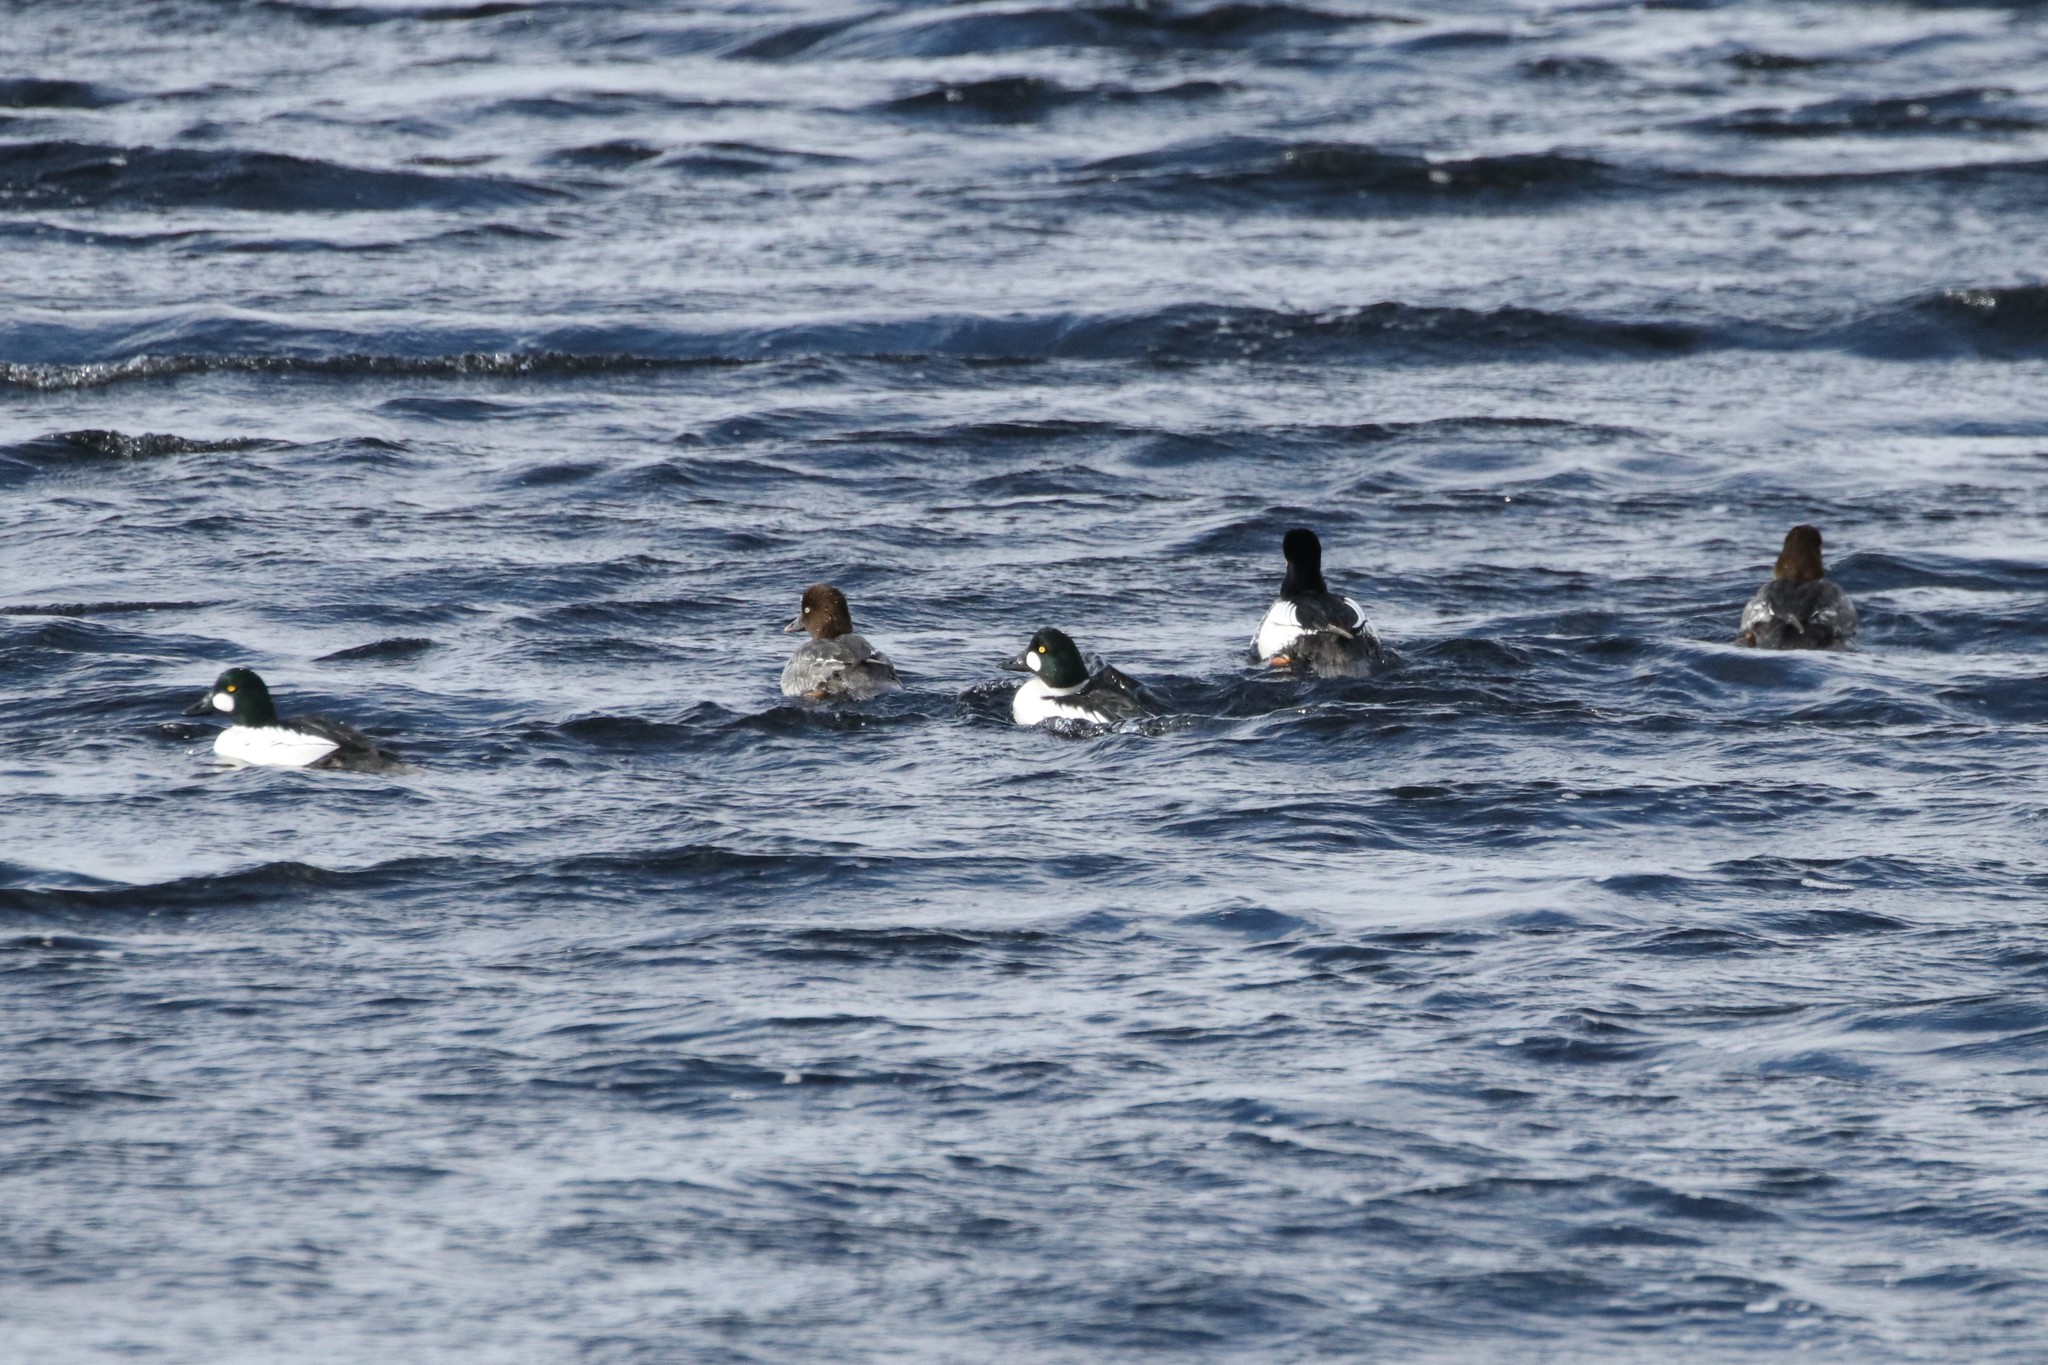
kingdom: Animalia
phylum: Chordata
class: Aves
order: Anseriformes
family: Anatidae
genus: Bucephala
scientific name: Bucephala clangula
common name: Common goldeneye
